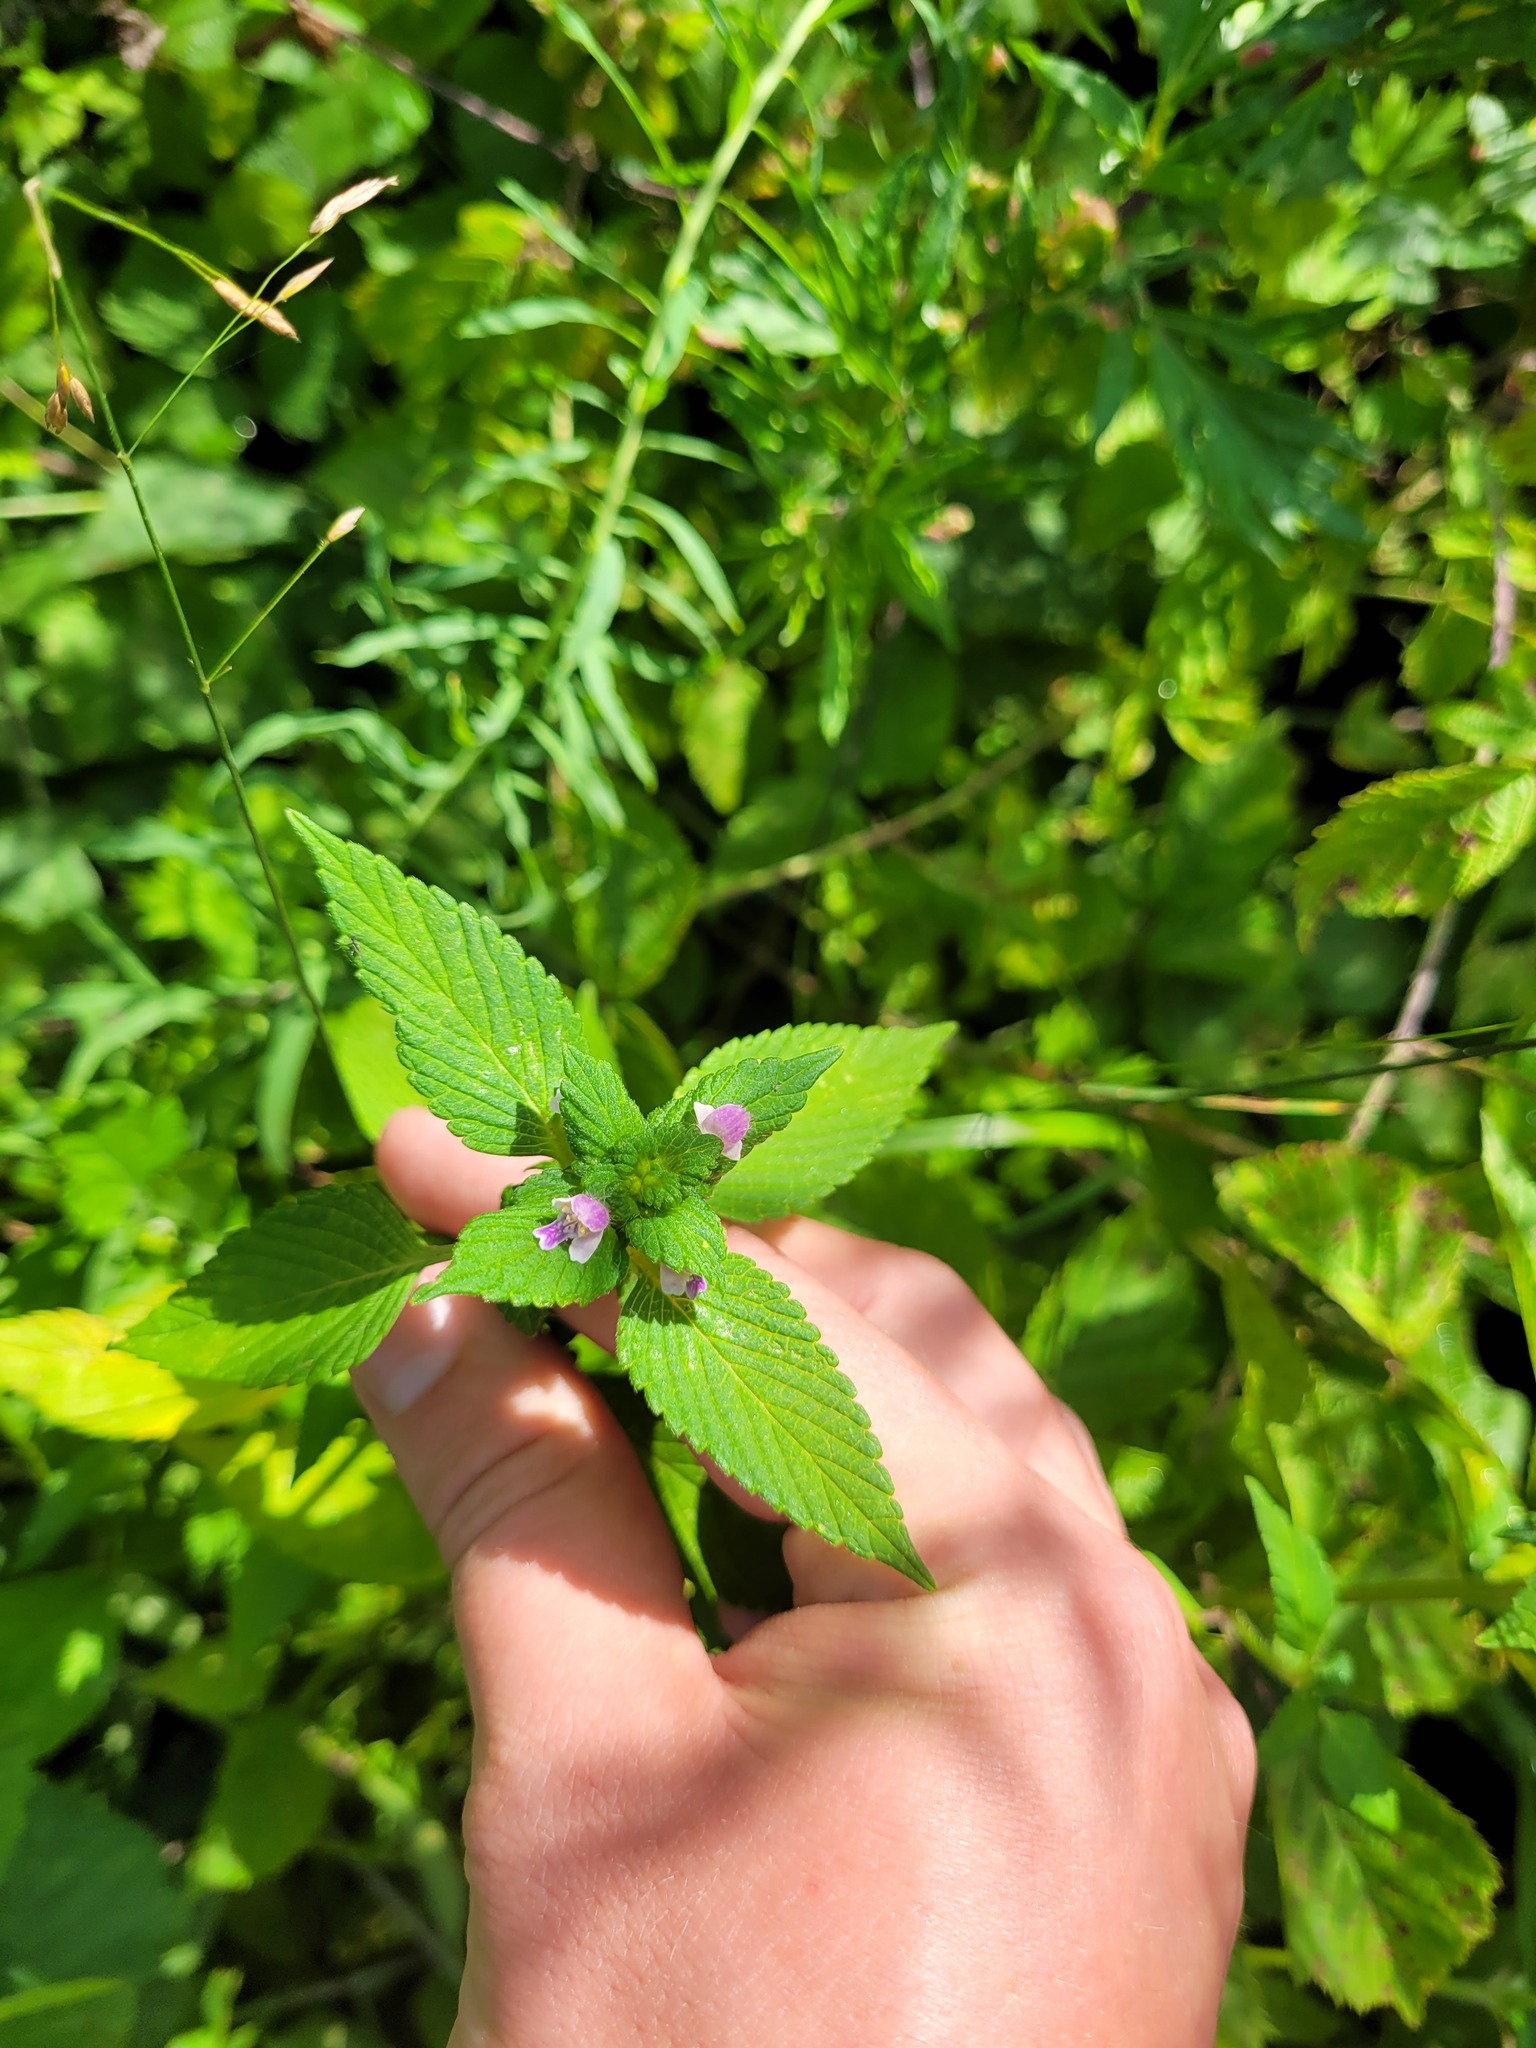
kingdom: Plantae
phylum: Tracheophyta
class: Magnoliopsida
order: Lamiales
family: Lamiaceae
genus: Galeopsis
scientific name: Galeopsis bifida
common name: Bifid hemp-nettle
